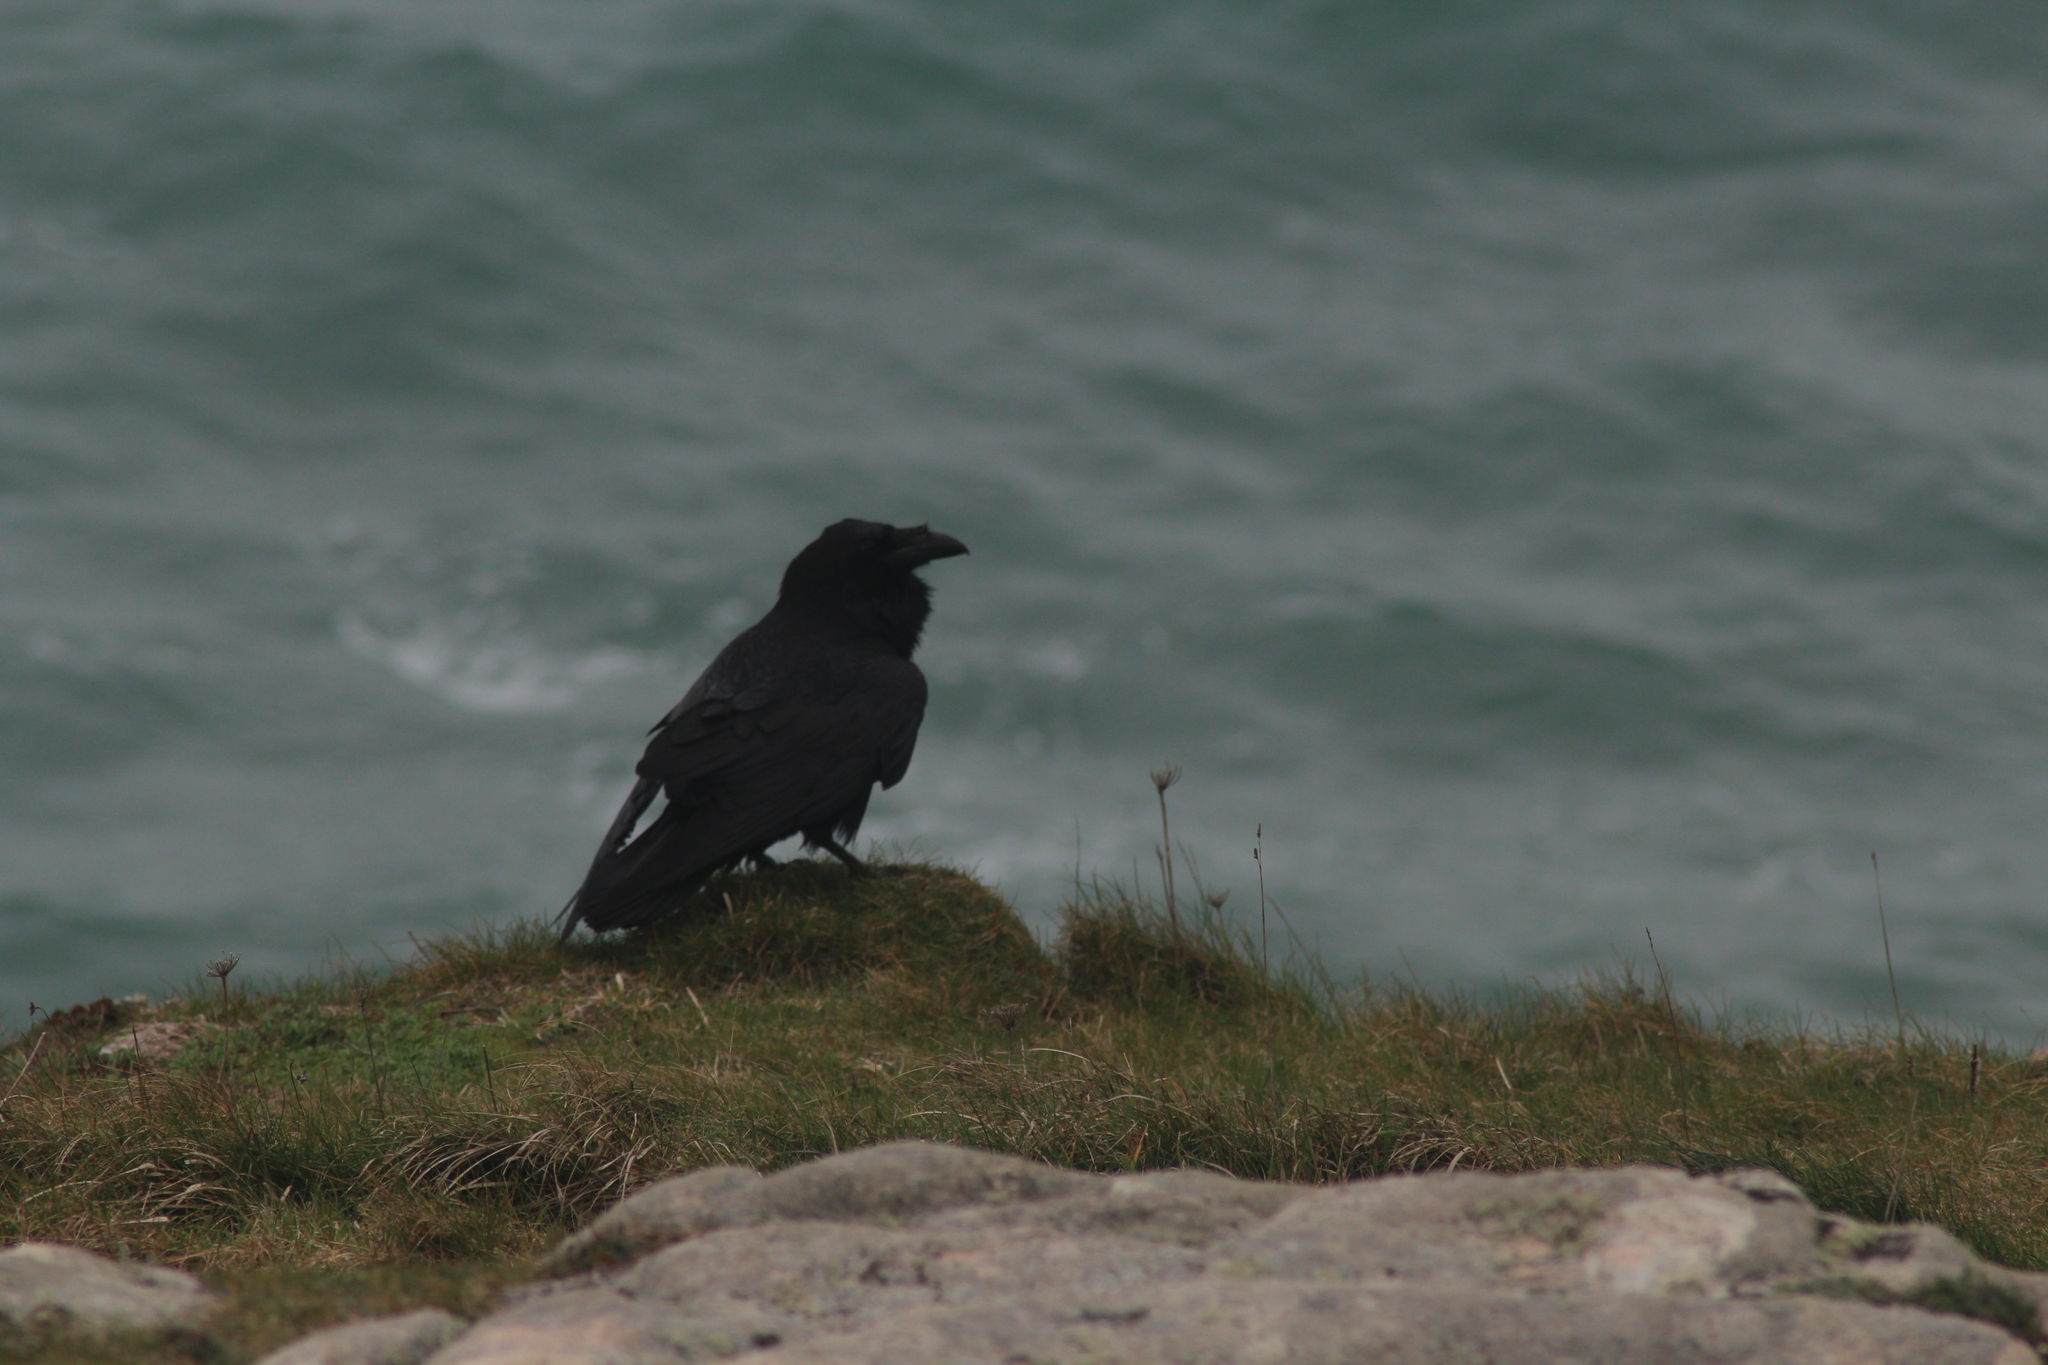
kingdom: Animalia
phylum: Chordata
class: Aves
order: Passeriformes
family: Corvidae
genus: Corvus
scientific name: Corvus corax
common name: Common raven
